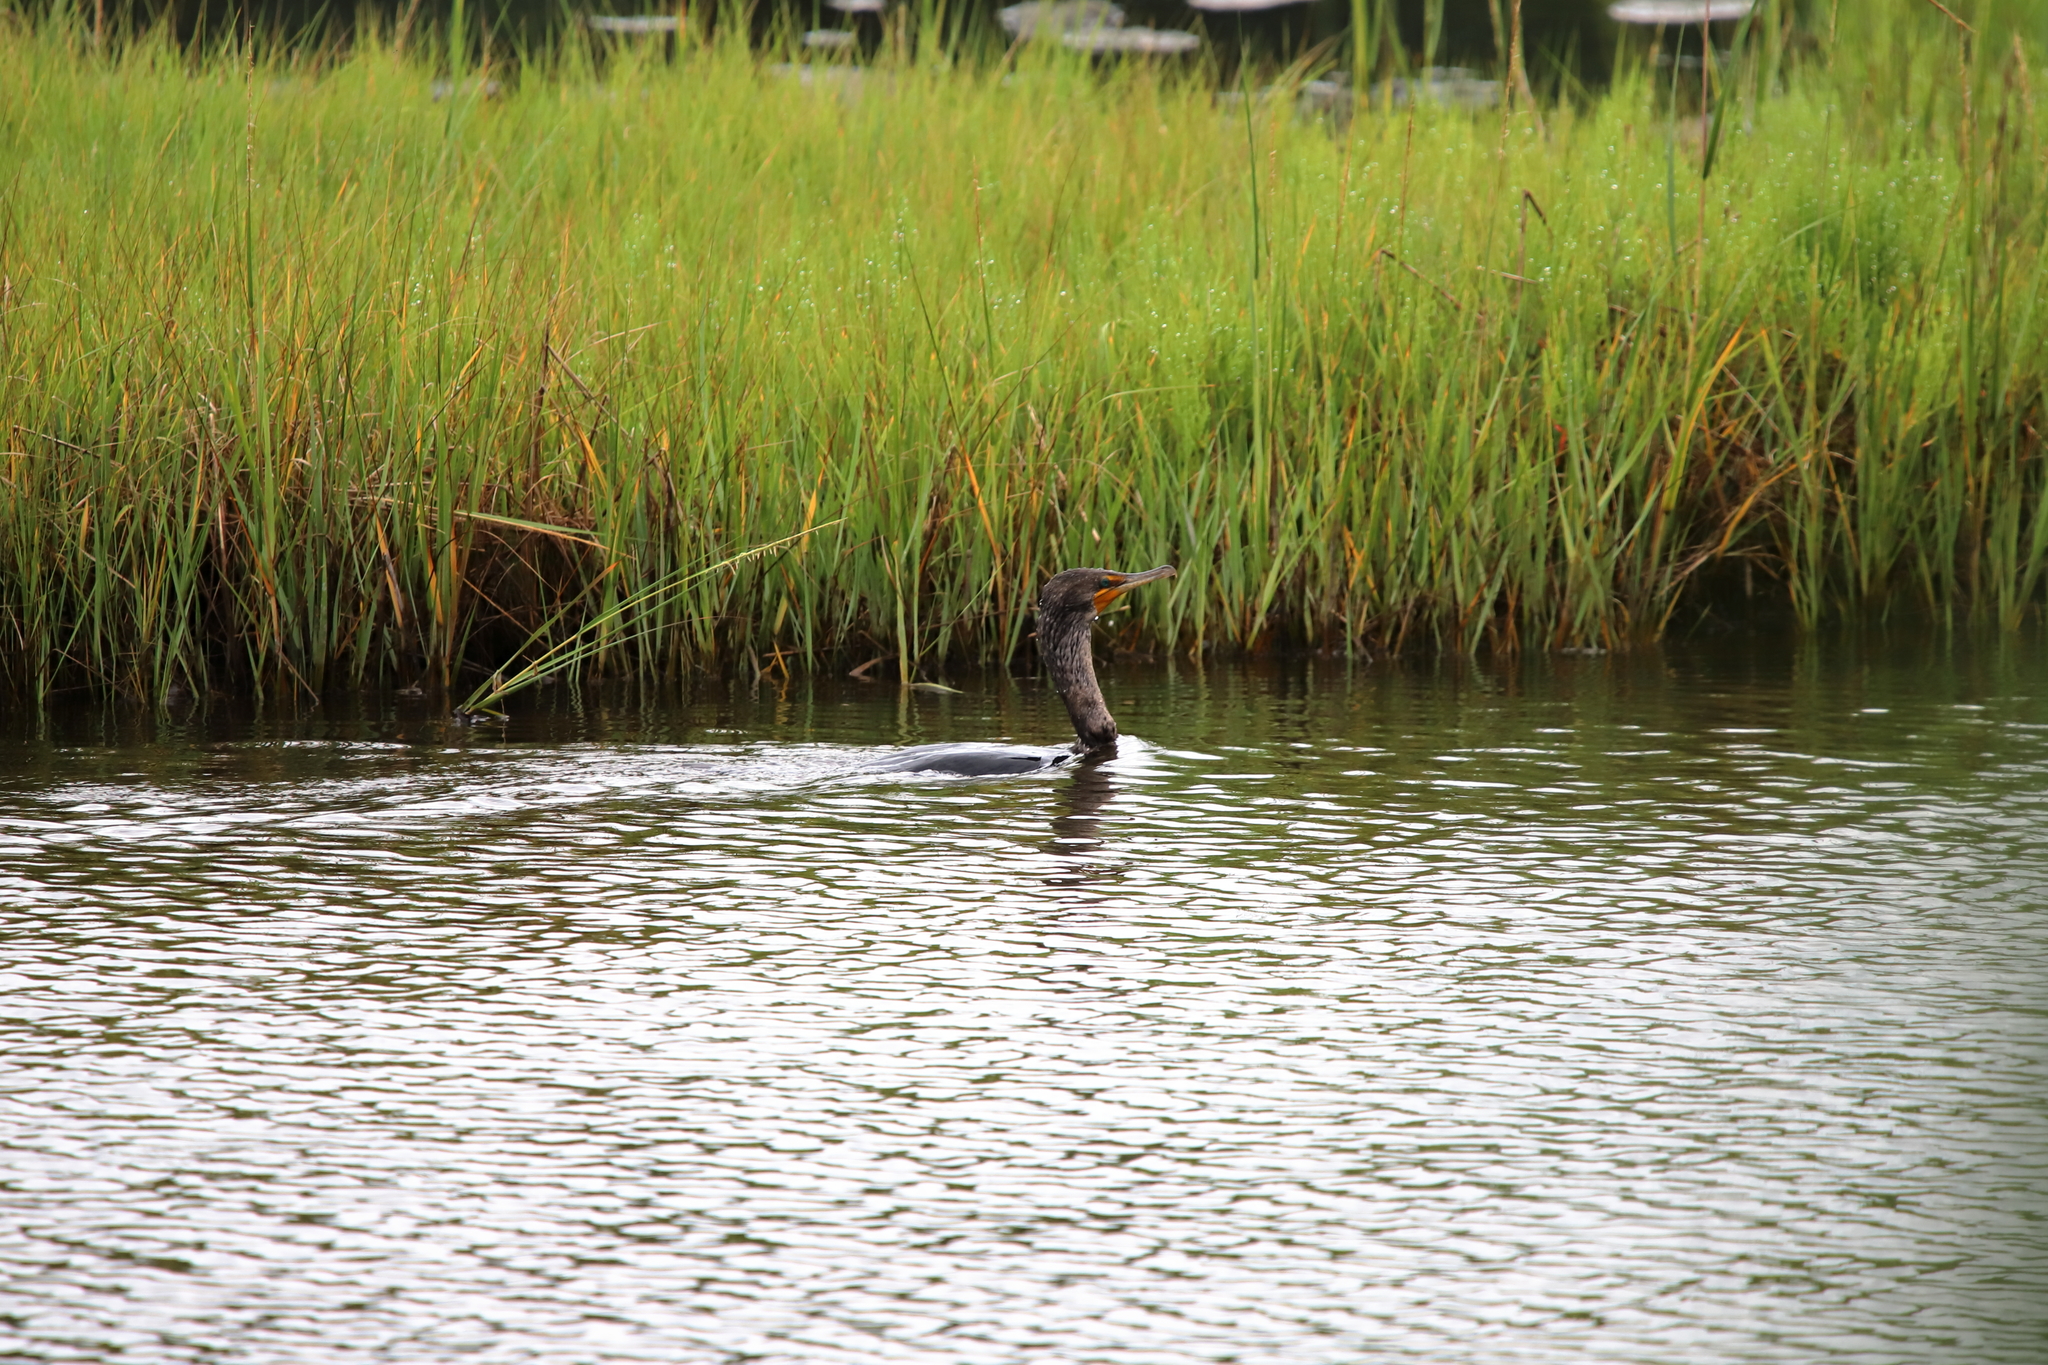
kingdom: Animalia
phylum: Chordata
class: Aves
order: Suliformes
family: Phalacrocoracidae
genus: Phalacrocorax
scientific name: Phalacrocorax auritus
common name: Double-crested cormorant
